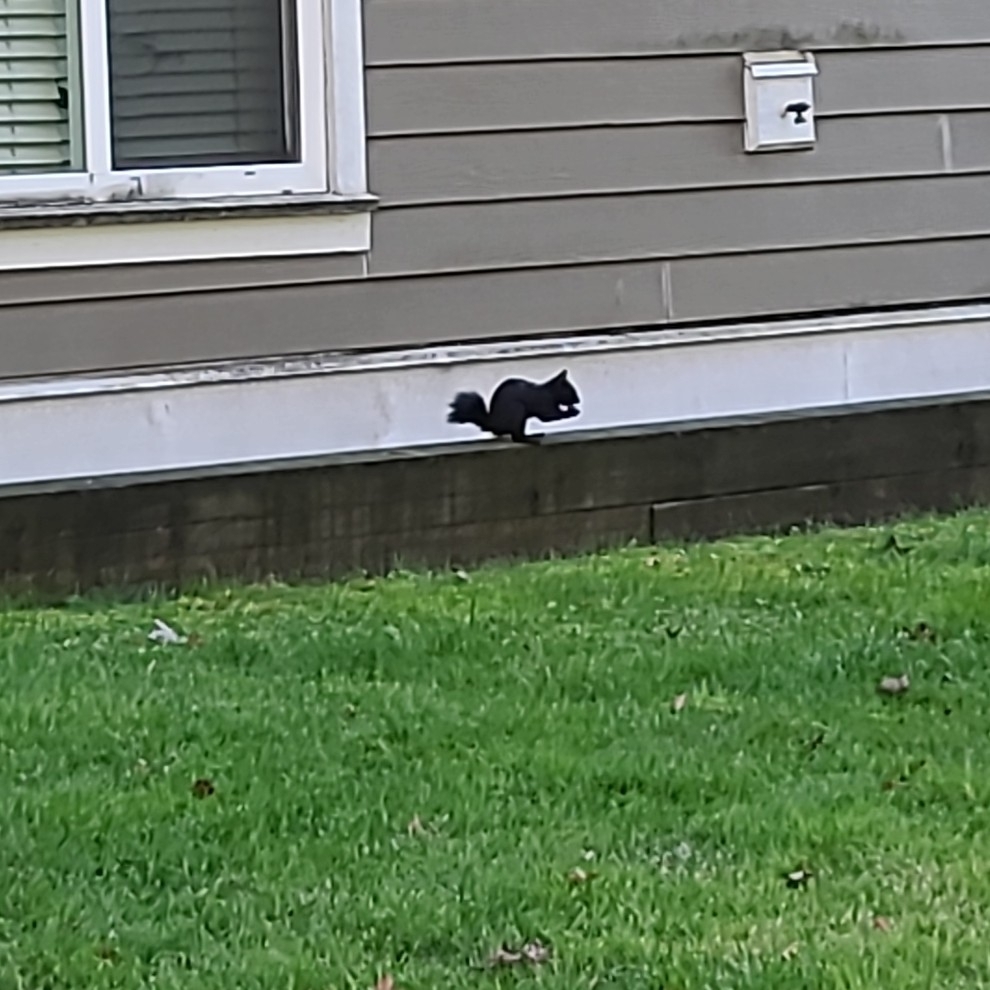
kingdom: Animalia
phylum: Chordata
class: Mammalia
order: Rodentia
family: Sciuridae
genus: Sciurus
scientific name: Sciurus carolinensis
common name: Eastern gray squirrel
